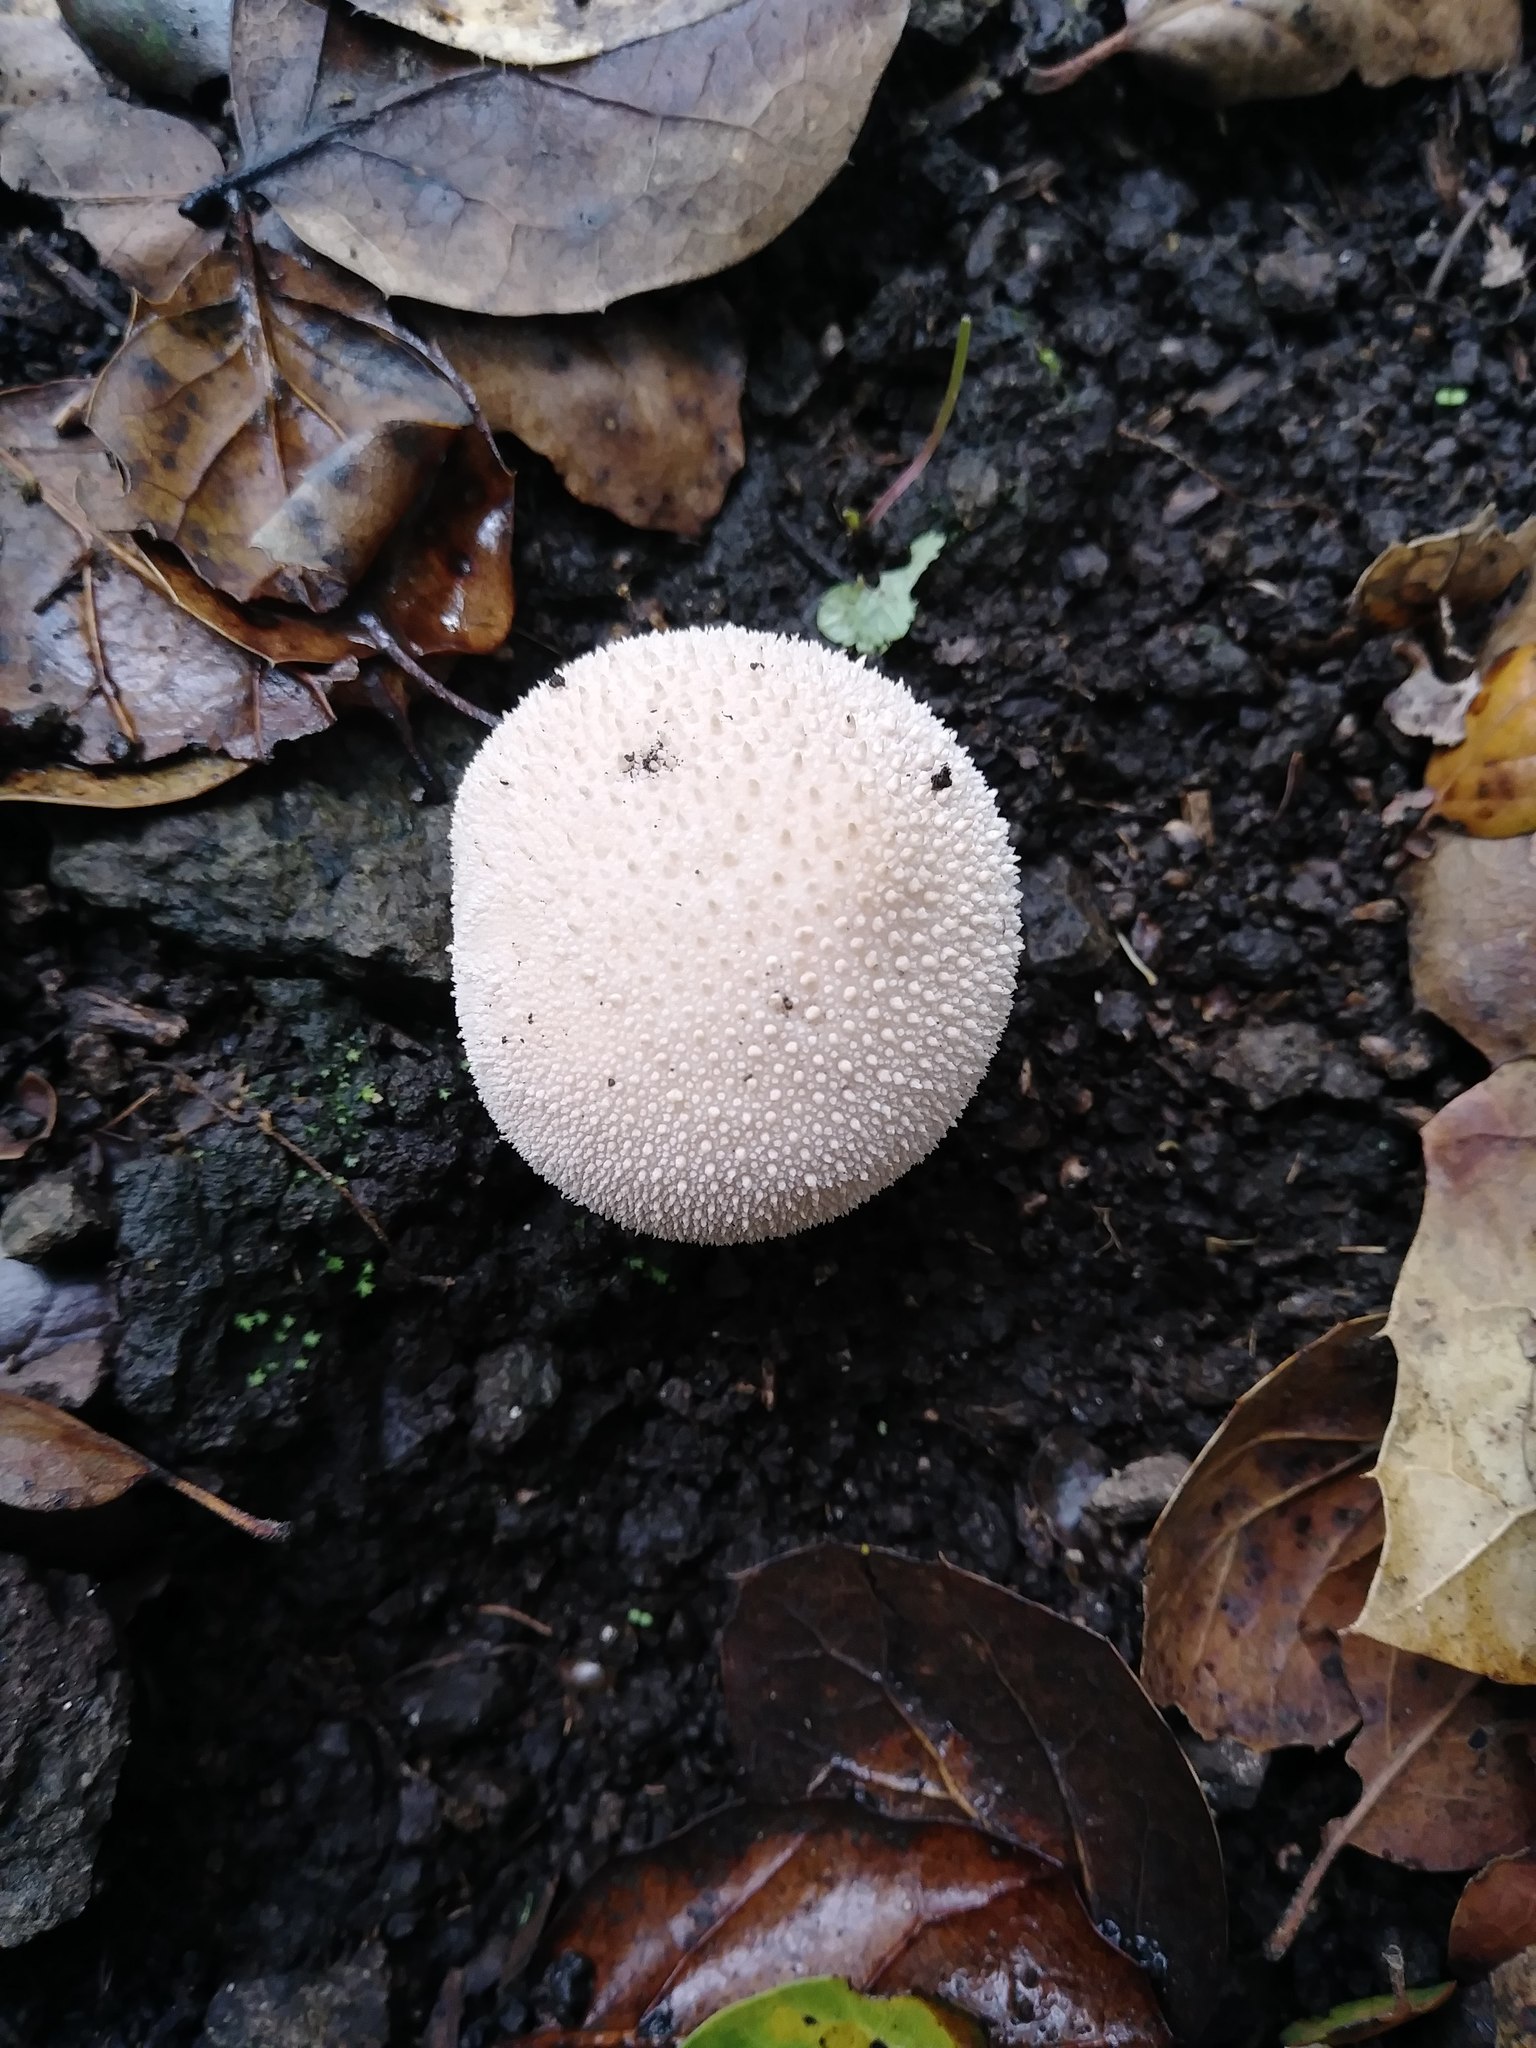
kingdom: Fungi
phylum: Basidiomycota
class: Agaricomycetes
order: Agaricales
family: Lycoperdaceae
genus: Lycoperdon
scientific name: Lycoperdon perlatum
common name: Common puffball
